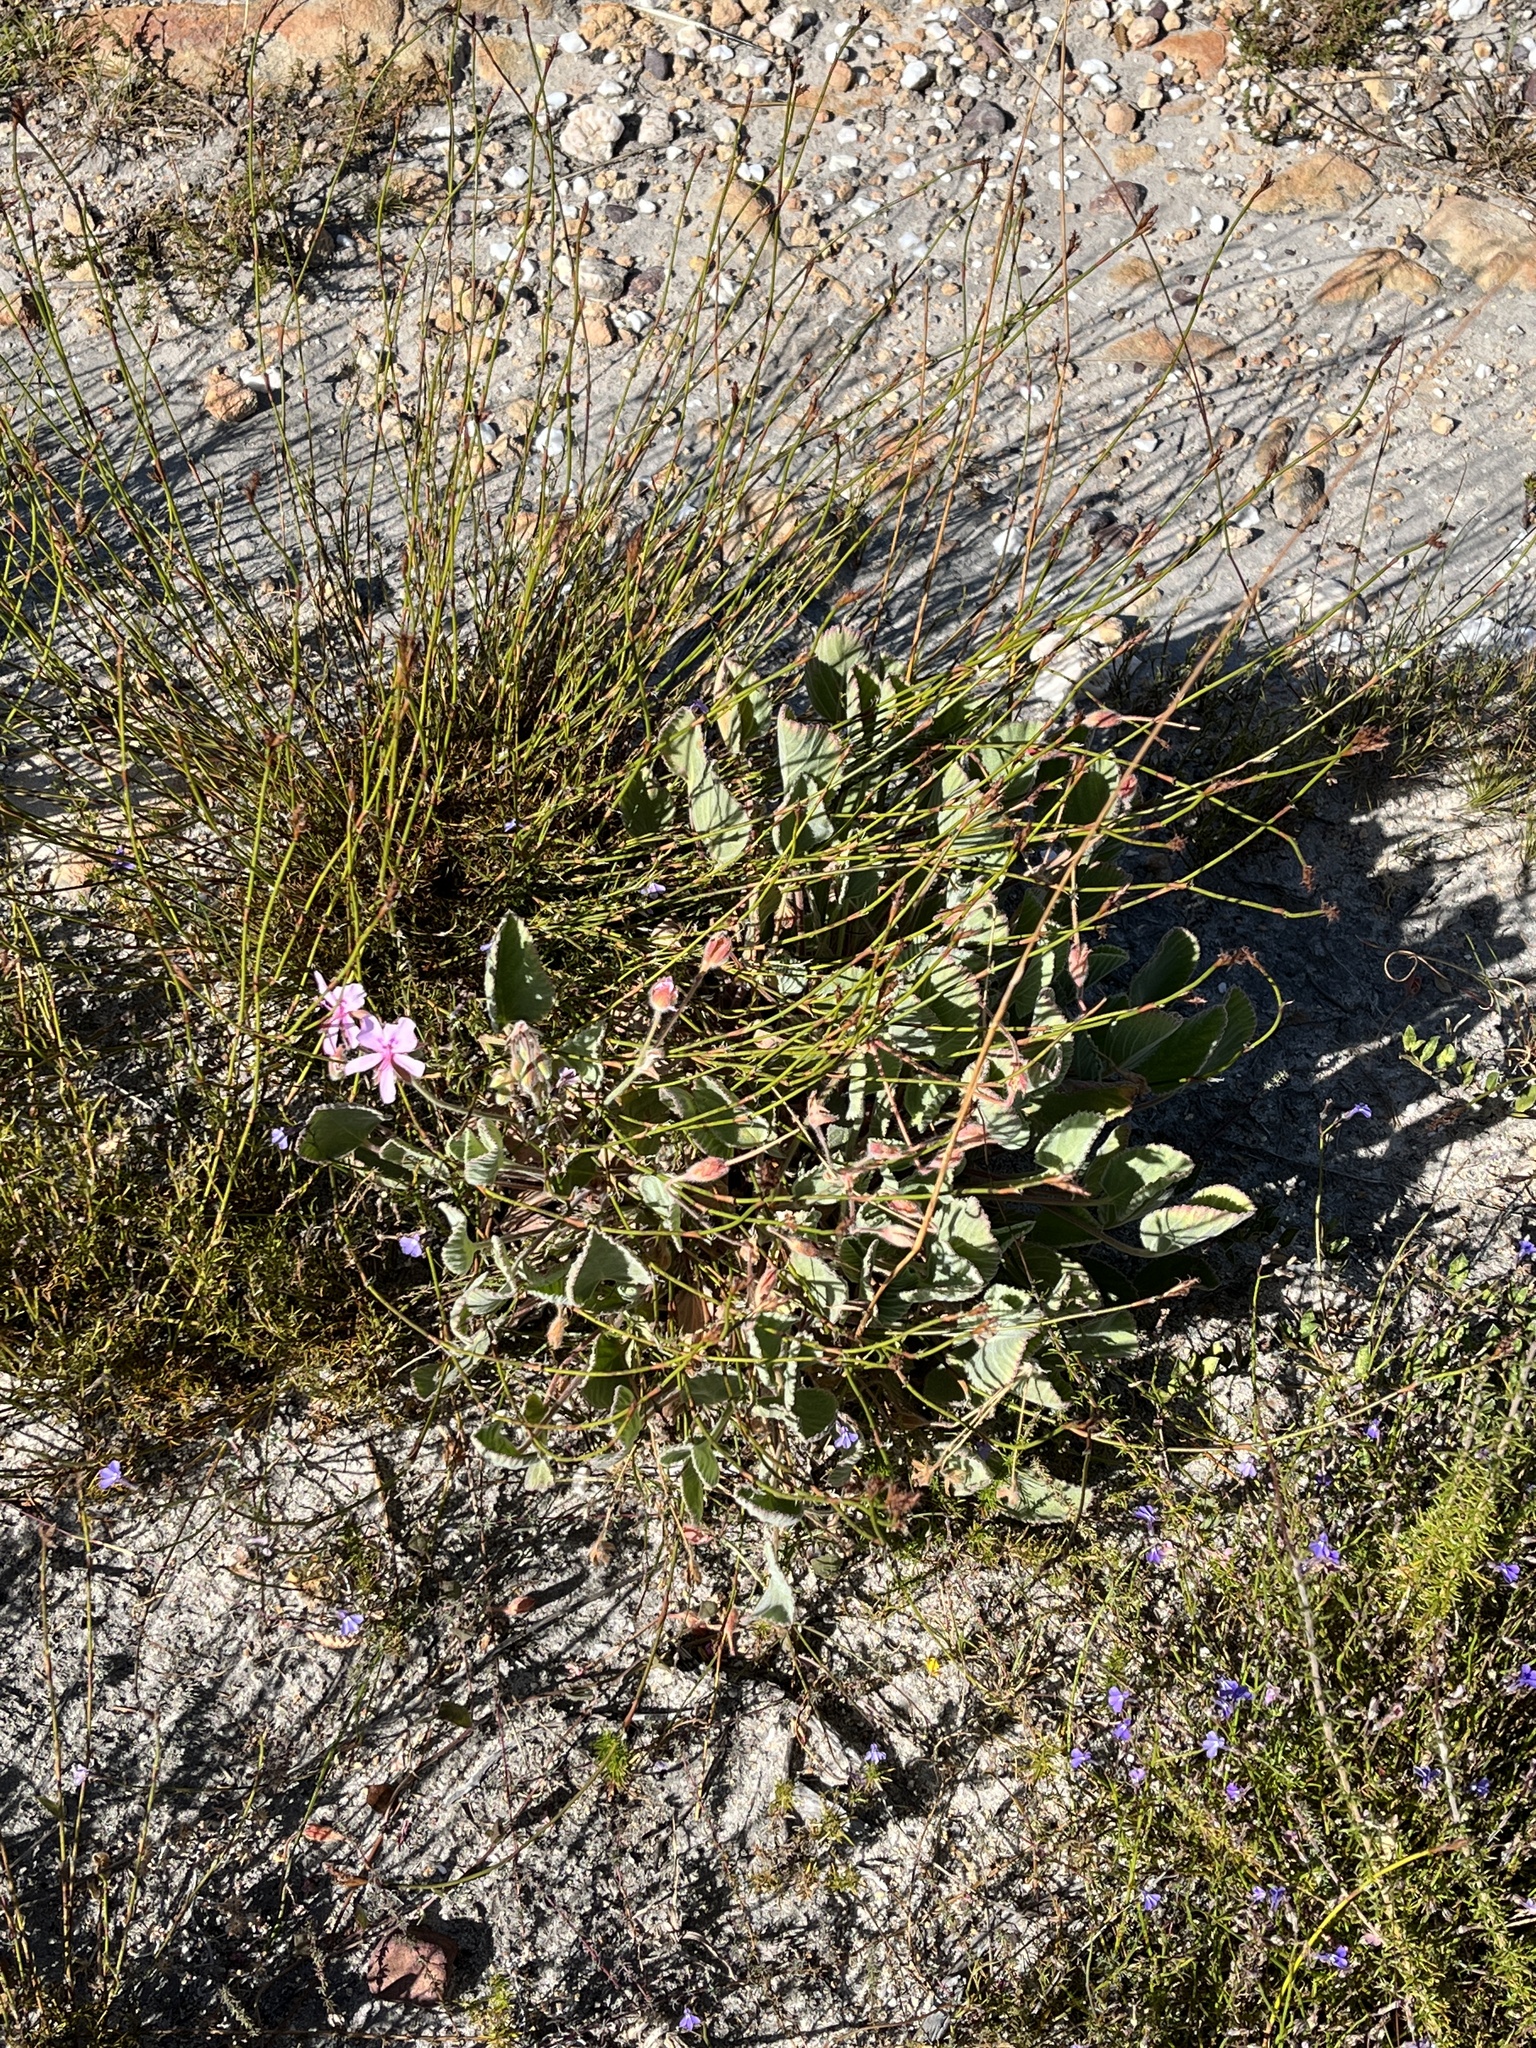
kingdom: Plantae
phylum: Tracheophyta
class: Magnoliopsida
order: Geraniales
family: Geraniaceae
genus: Pelargonium
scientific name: Pelargonium ovale
